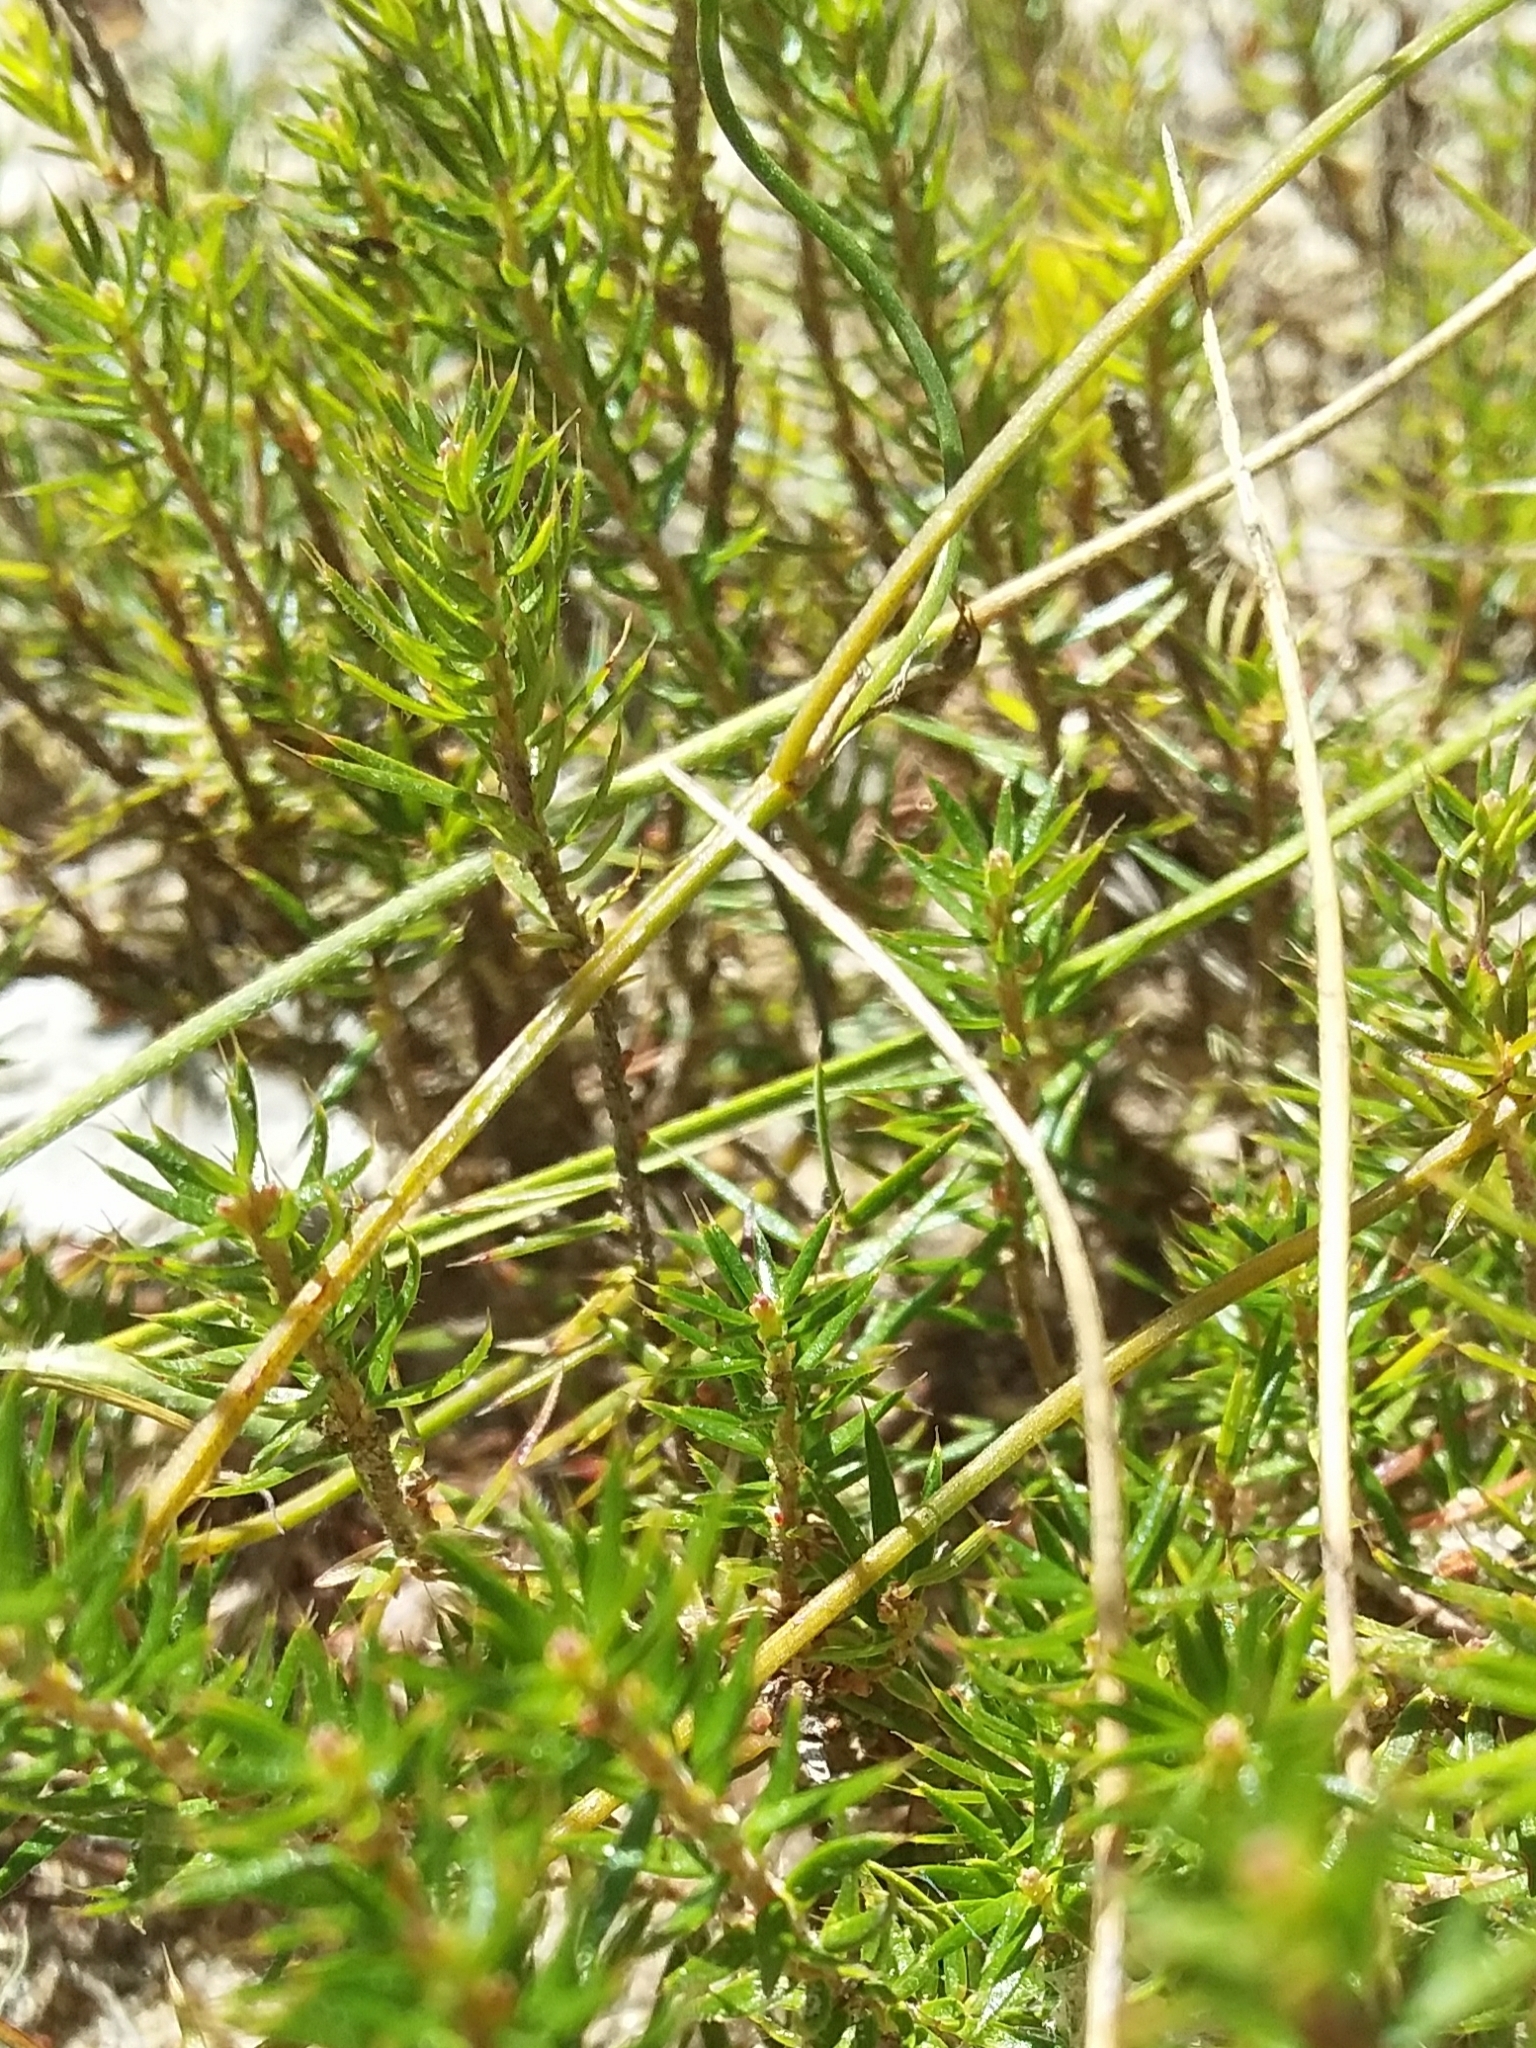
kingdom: Plantae
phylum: Tracheophyta
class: Magnoliopsida
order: Ericales
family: Ericaceae
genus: Acrotriche
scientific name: Acrotriche serrulata
